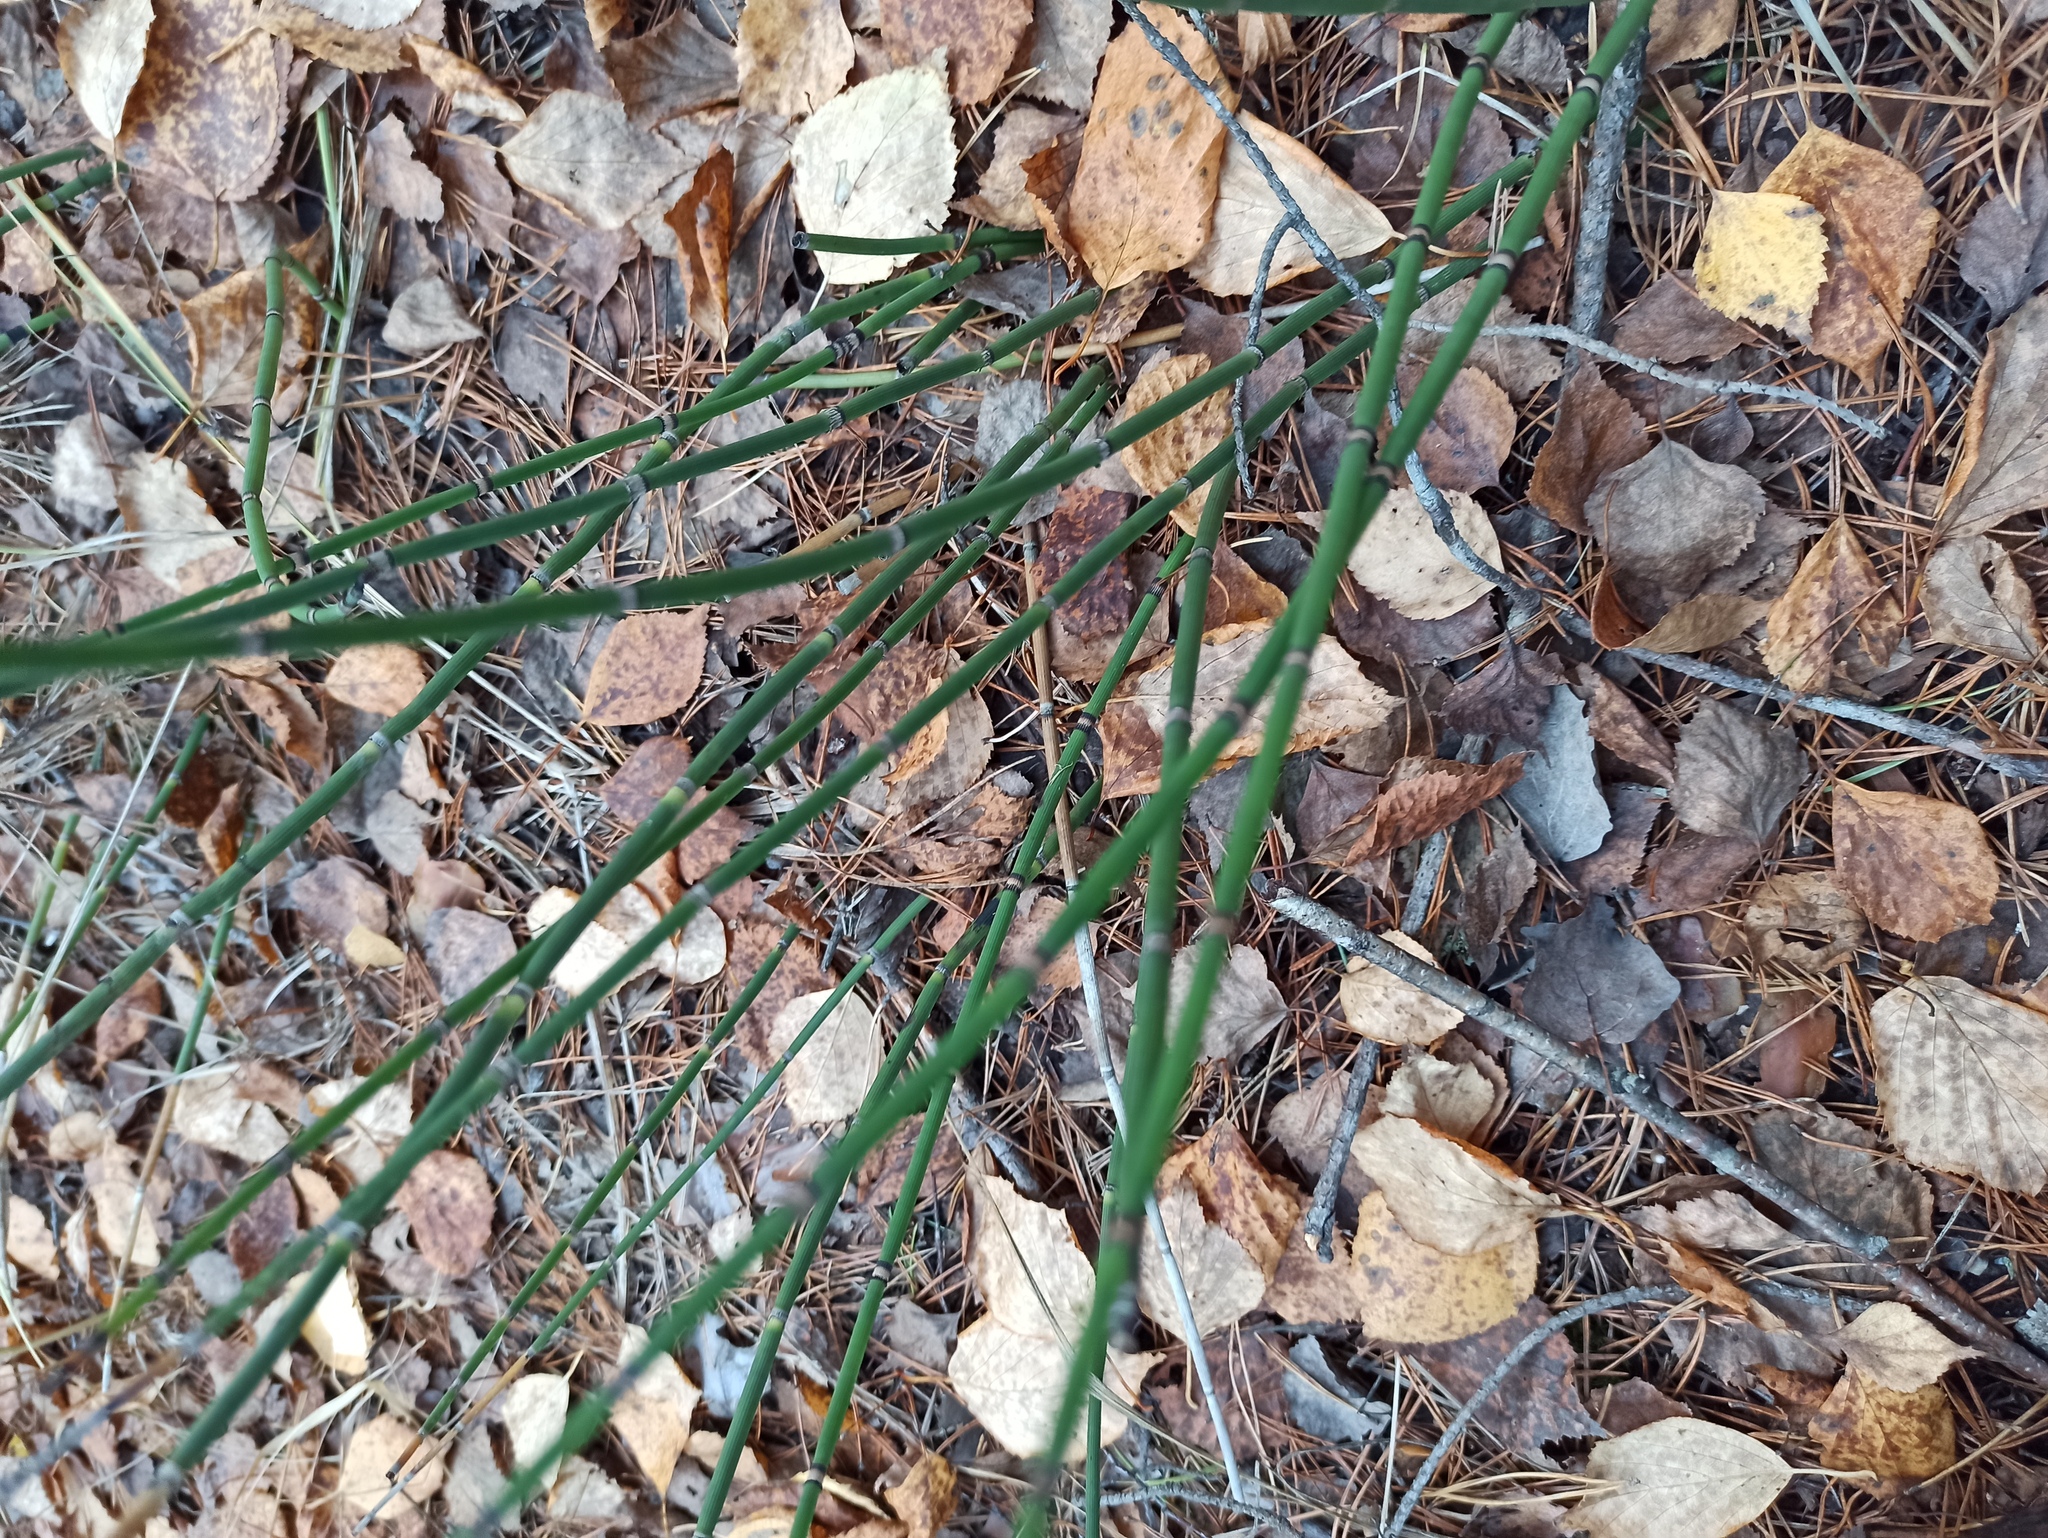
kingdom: Plantae
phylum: Tracheophyta
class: Polypodiopsida
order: Equisetales
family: Equisetaceae
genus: Equisetum
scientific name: Equisetum hyemale
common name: Rough horsetail
